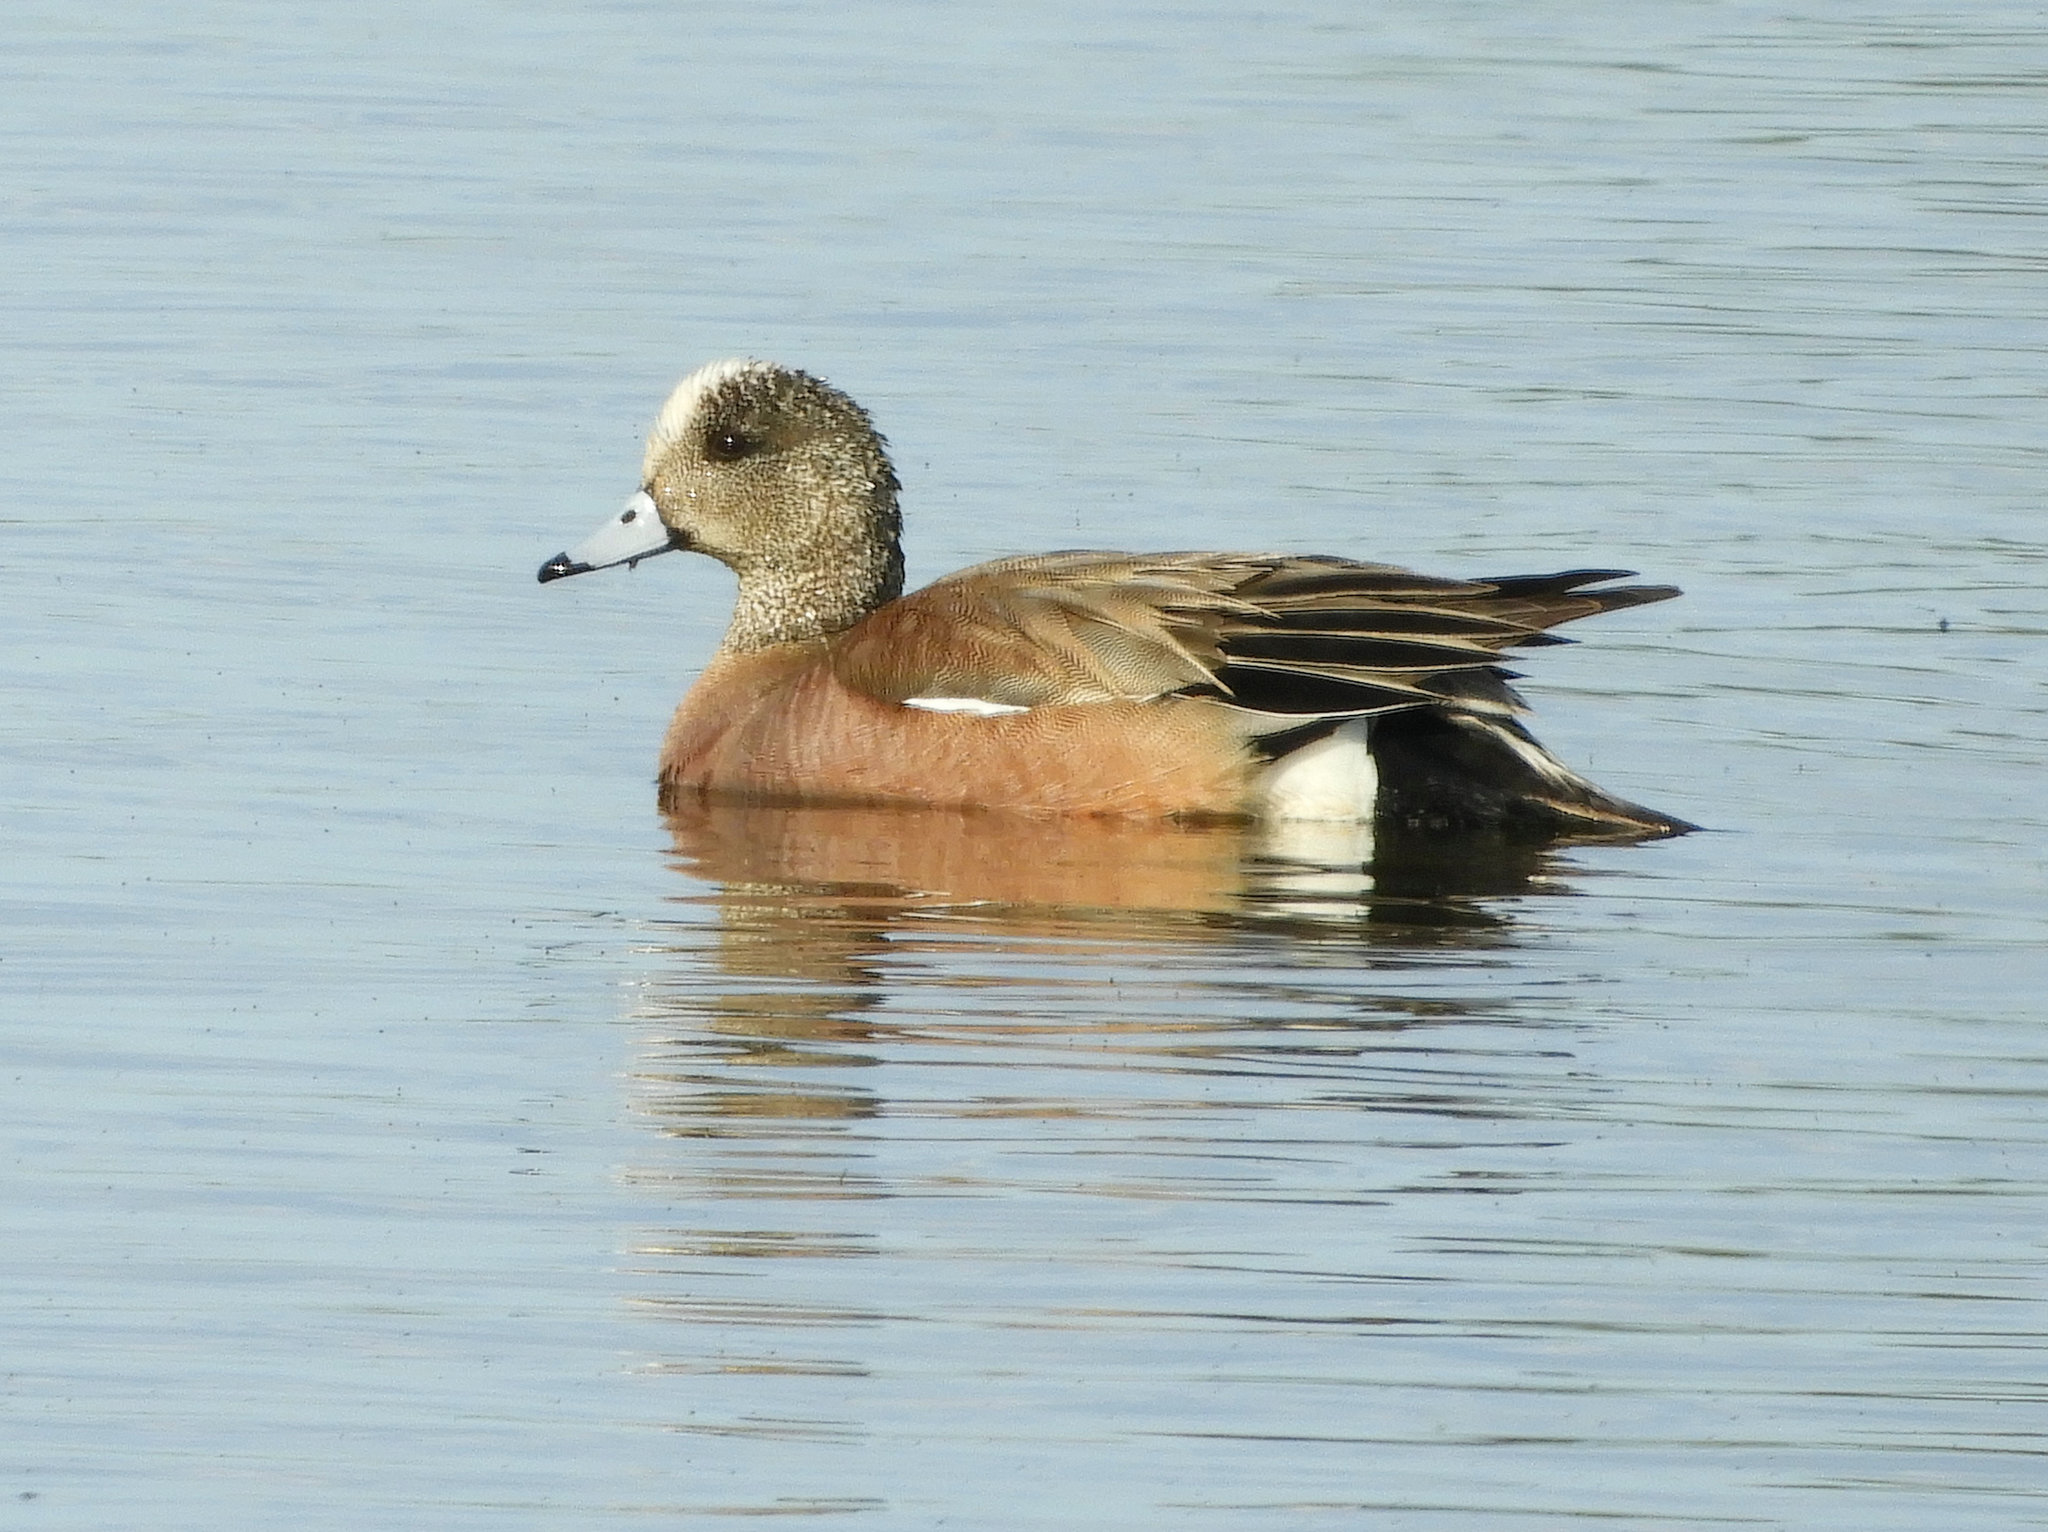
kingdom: Animalia
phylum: Chordata
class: Aves
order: Anseriformes
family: Anatidae
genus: Mareca
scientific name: Mareca americana
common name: American wigeon
